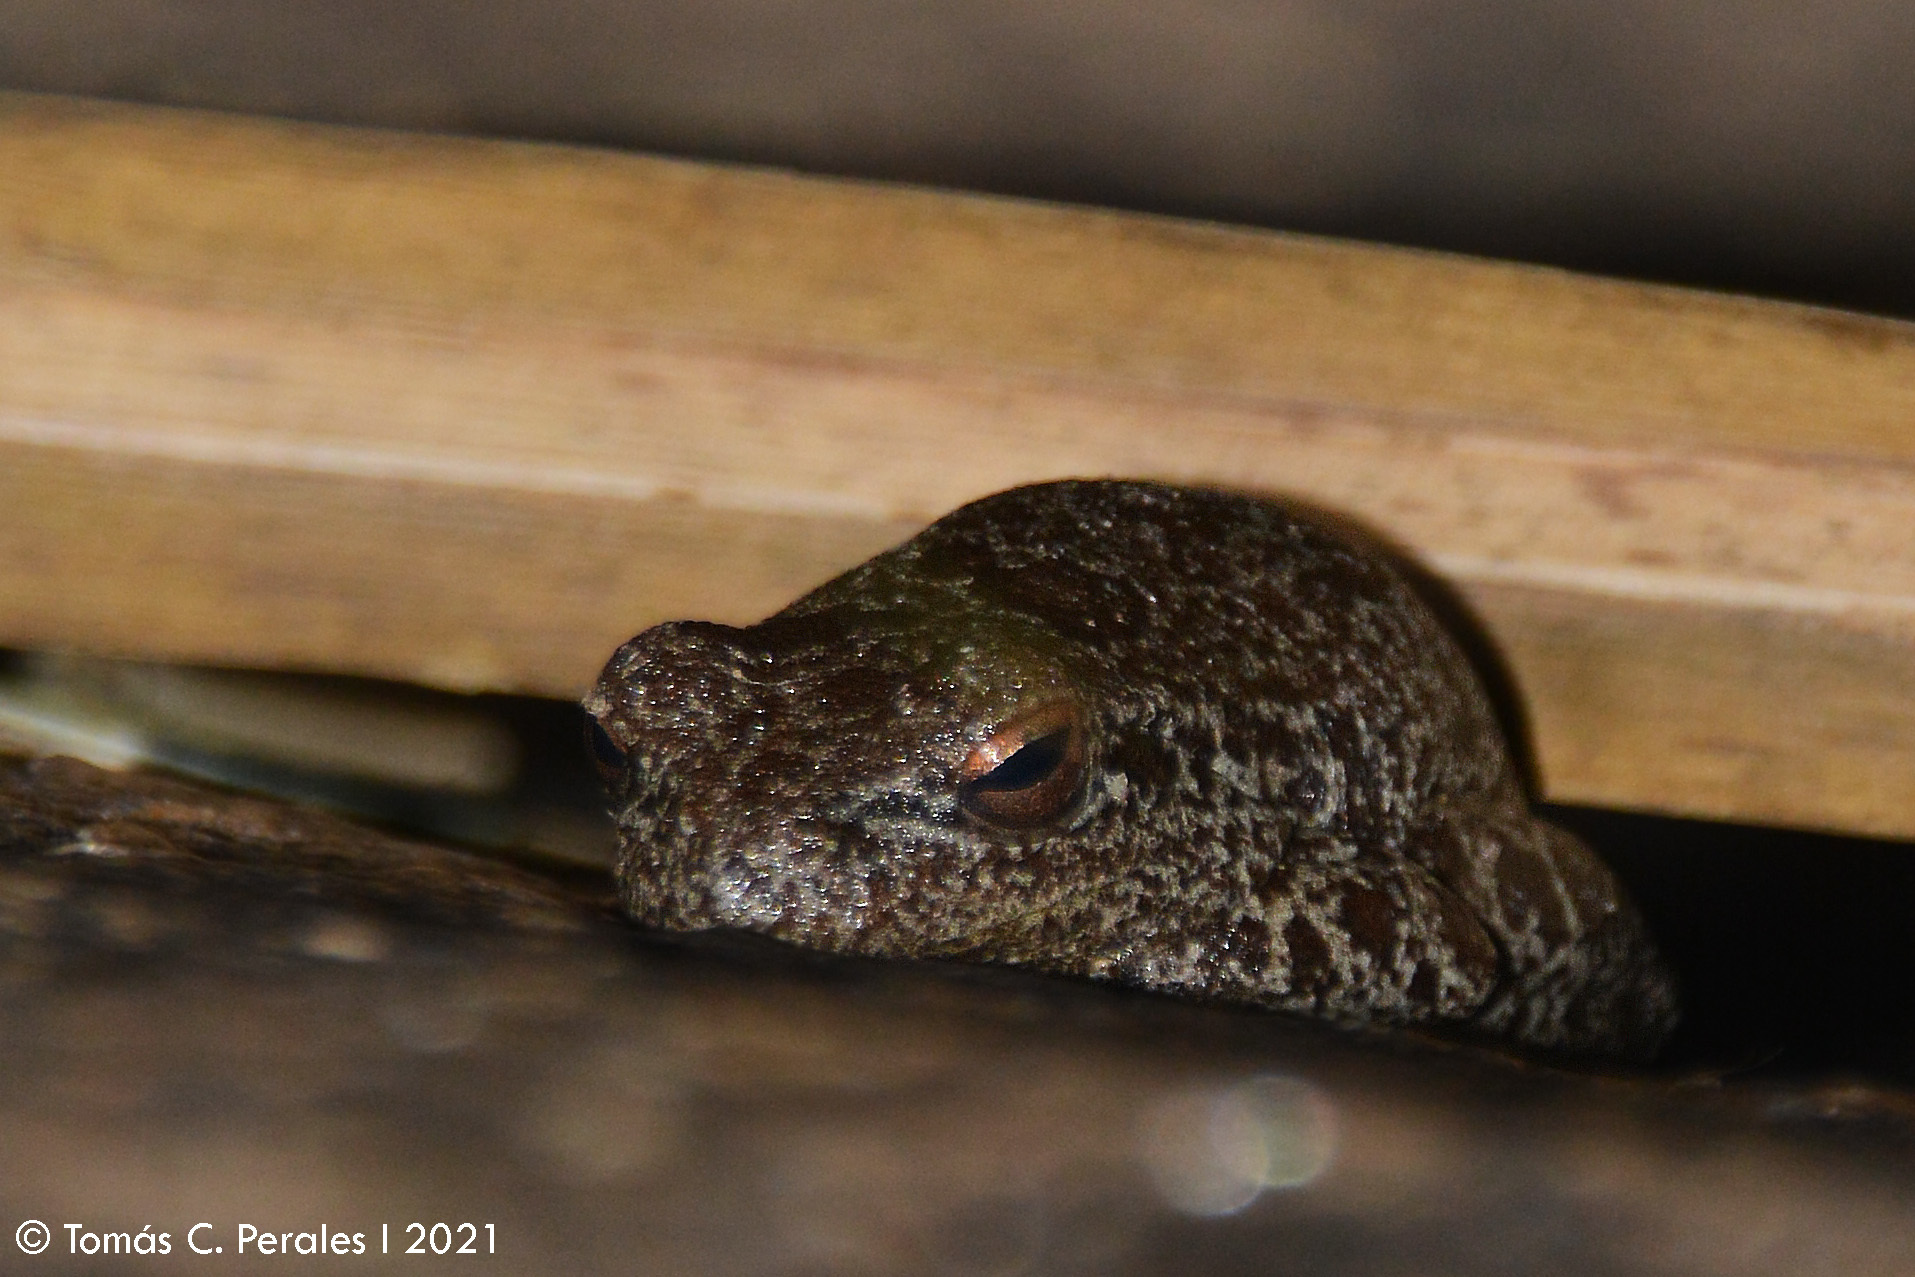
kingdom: Animalia
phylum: Chordata
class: Amphibia
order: Anura
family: Hylidae
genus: Boana
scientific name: Boana cordobae
